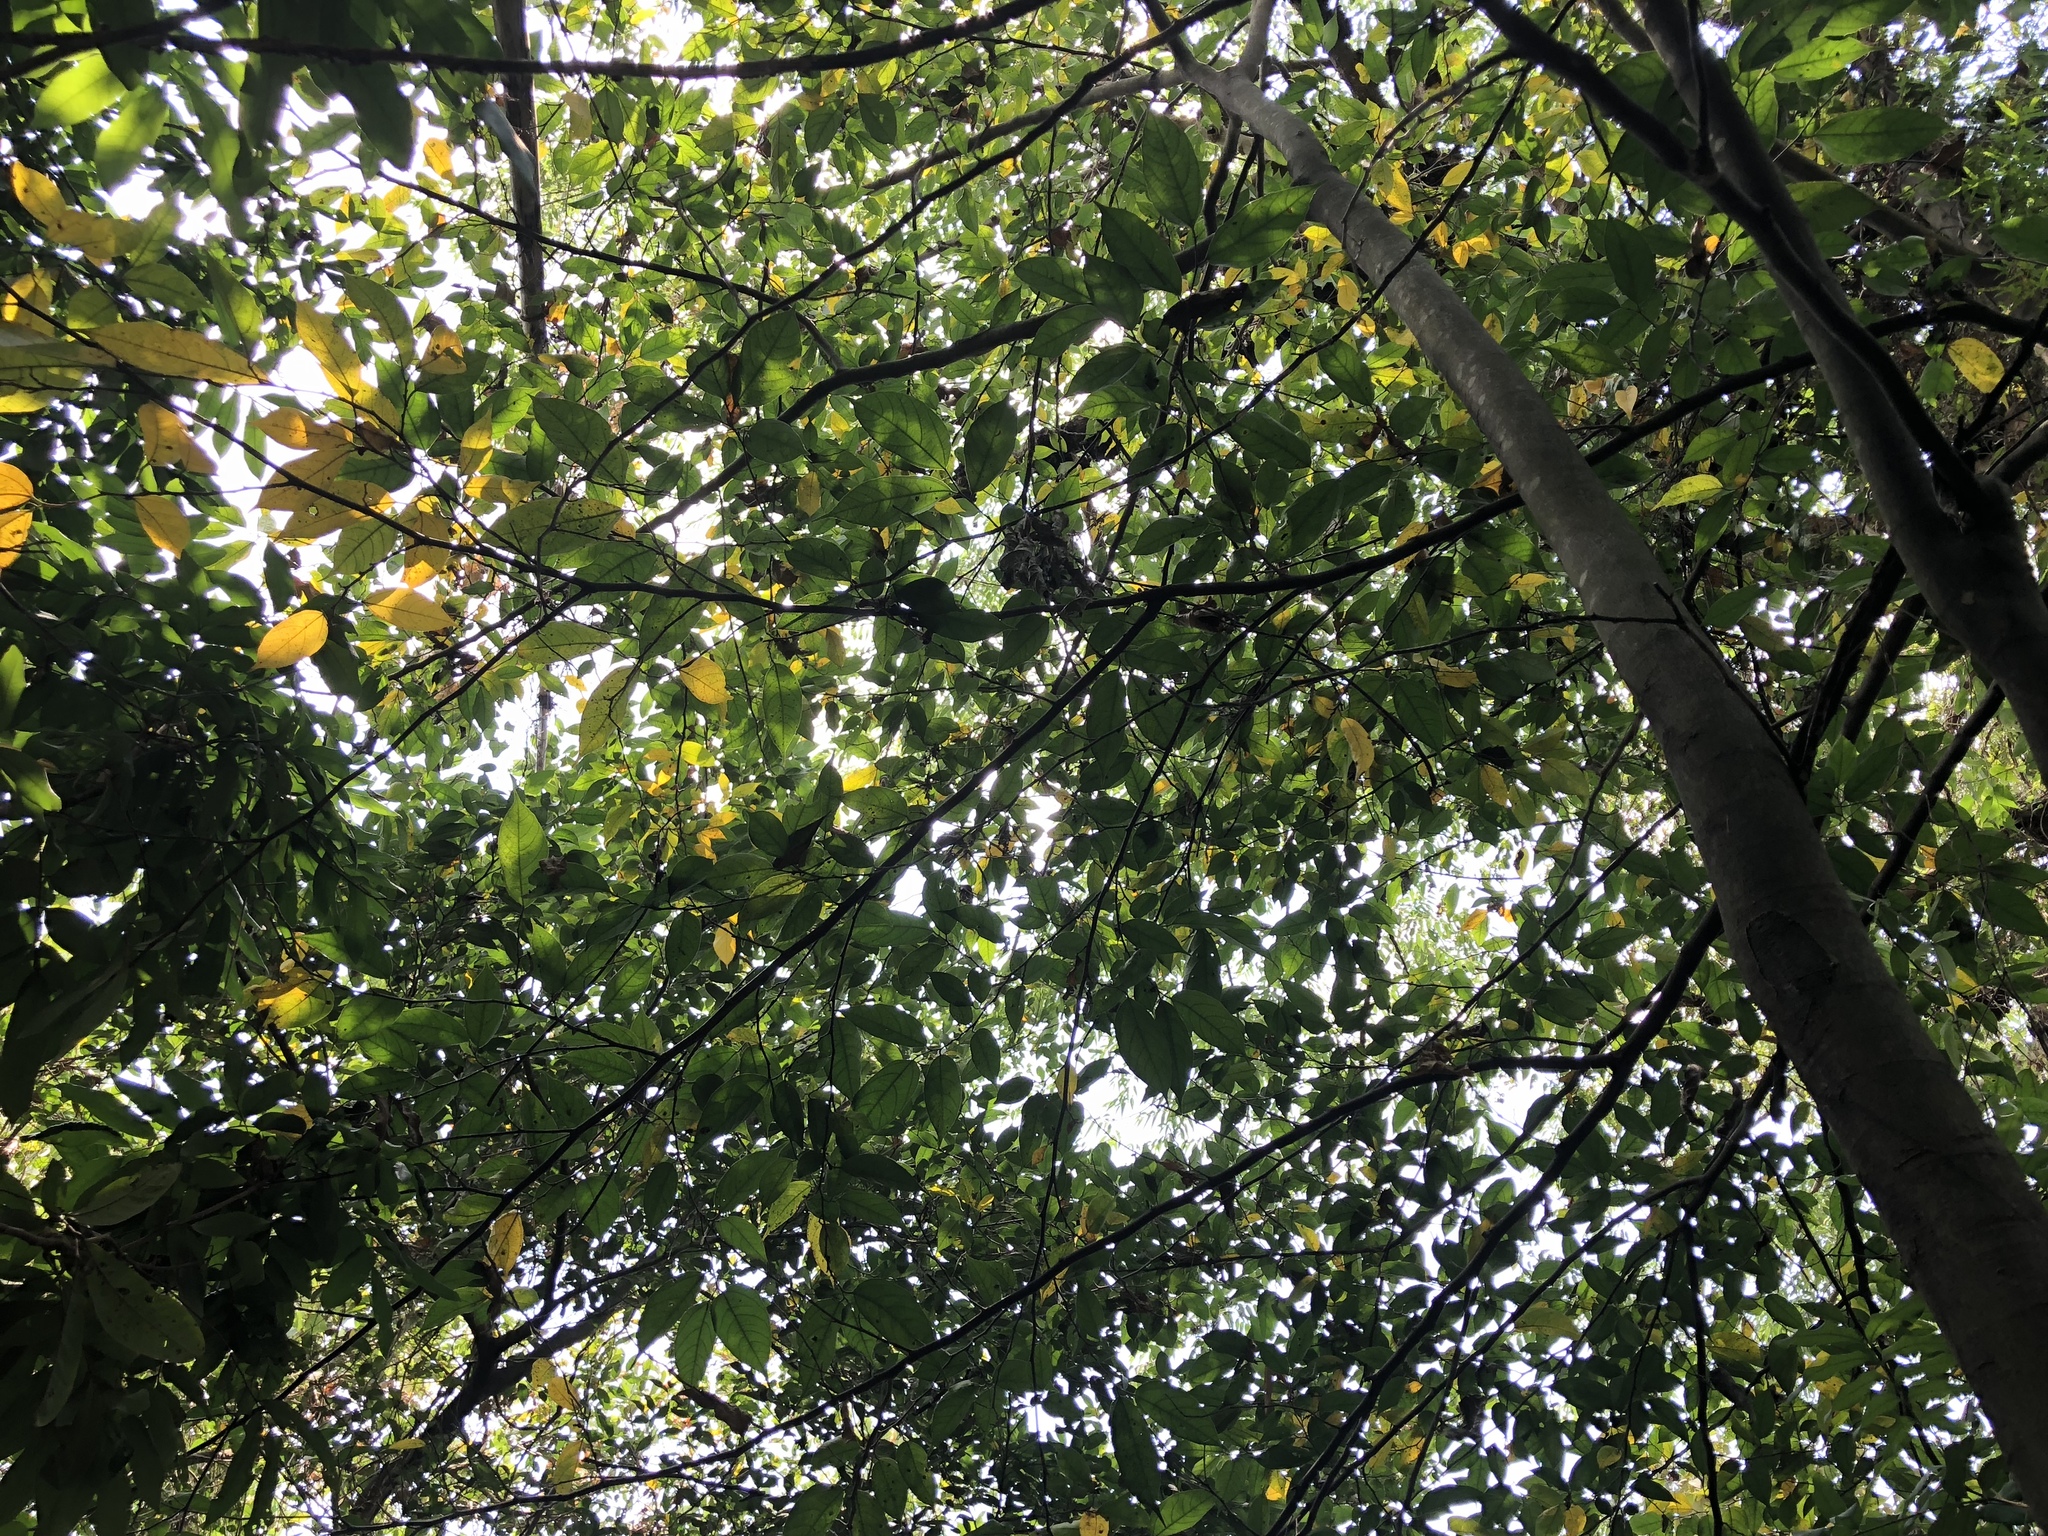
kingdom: Plantae
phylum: Tracheophyta
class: Magnoliopsida
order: Rosales
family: Moraceae
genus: Ficus
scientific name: Ficus ampelos
